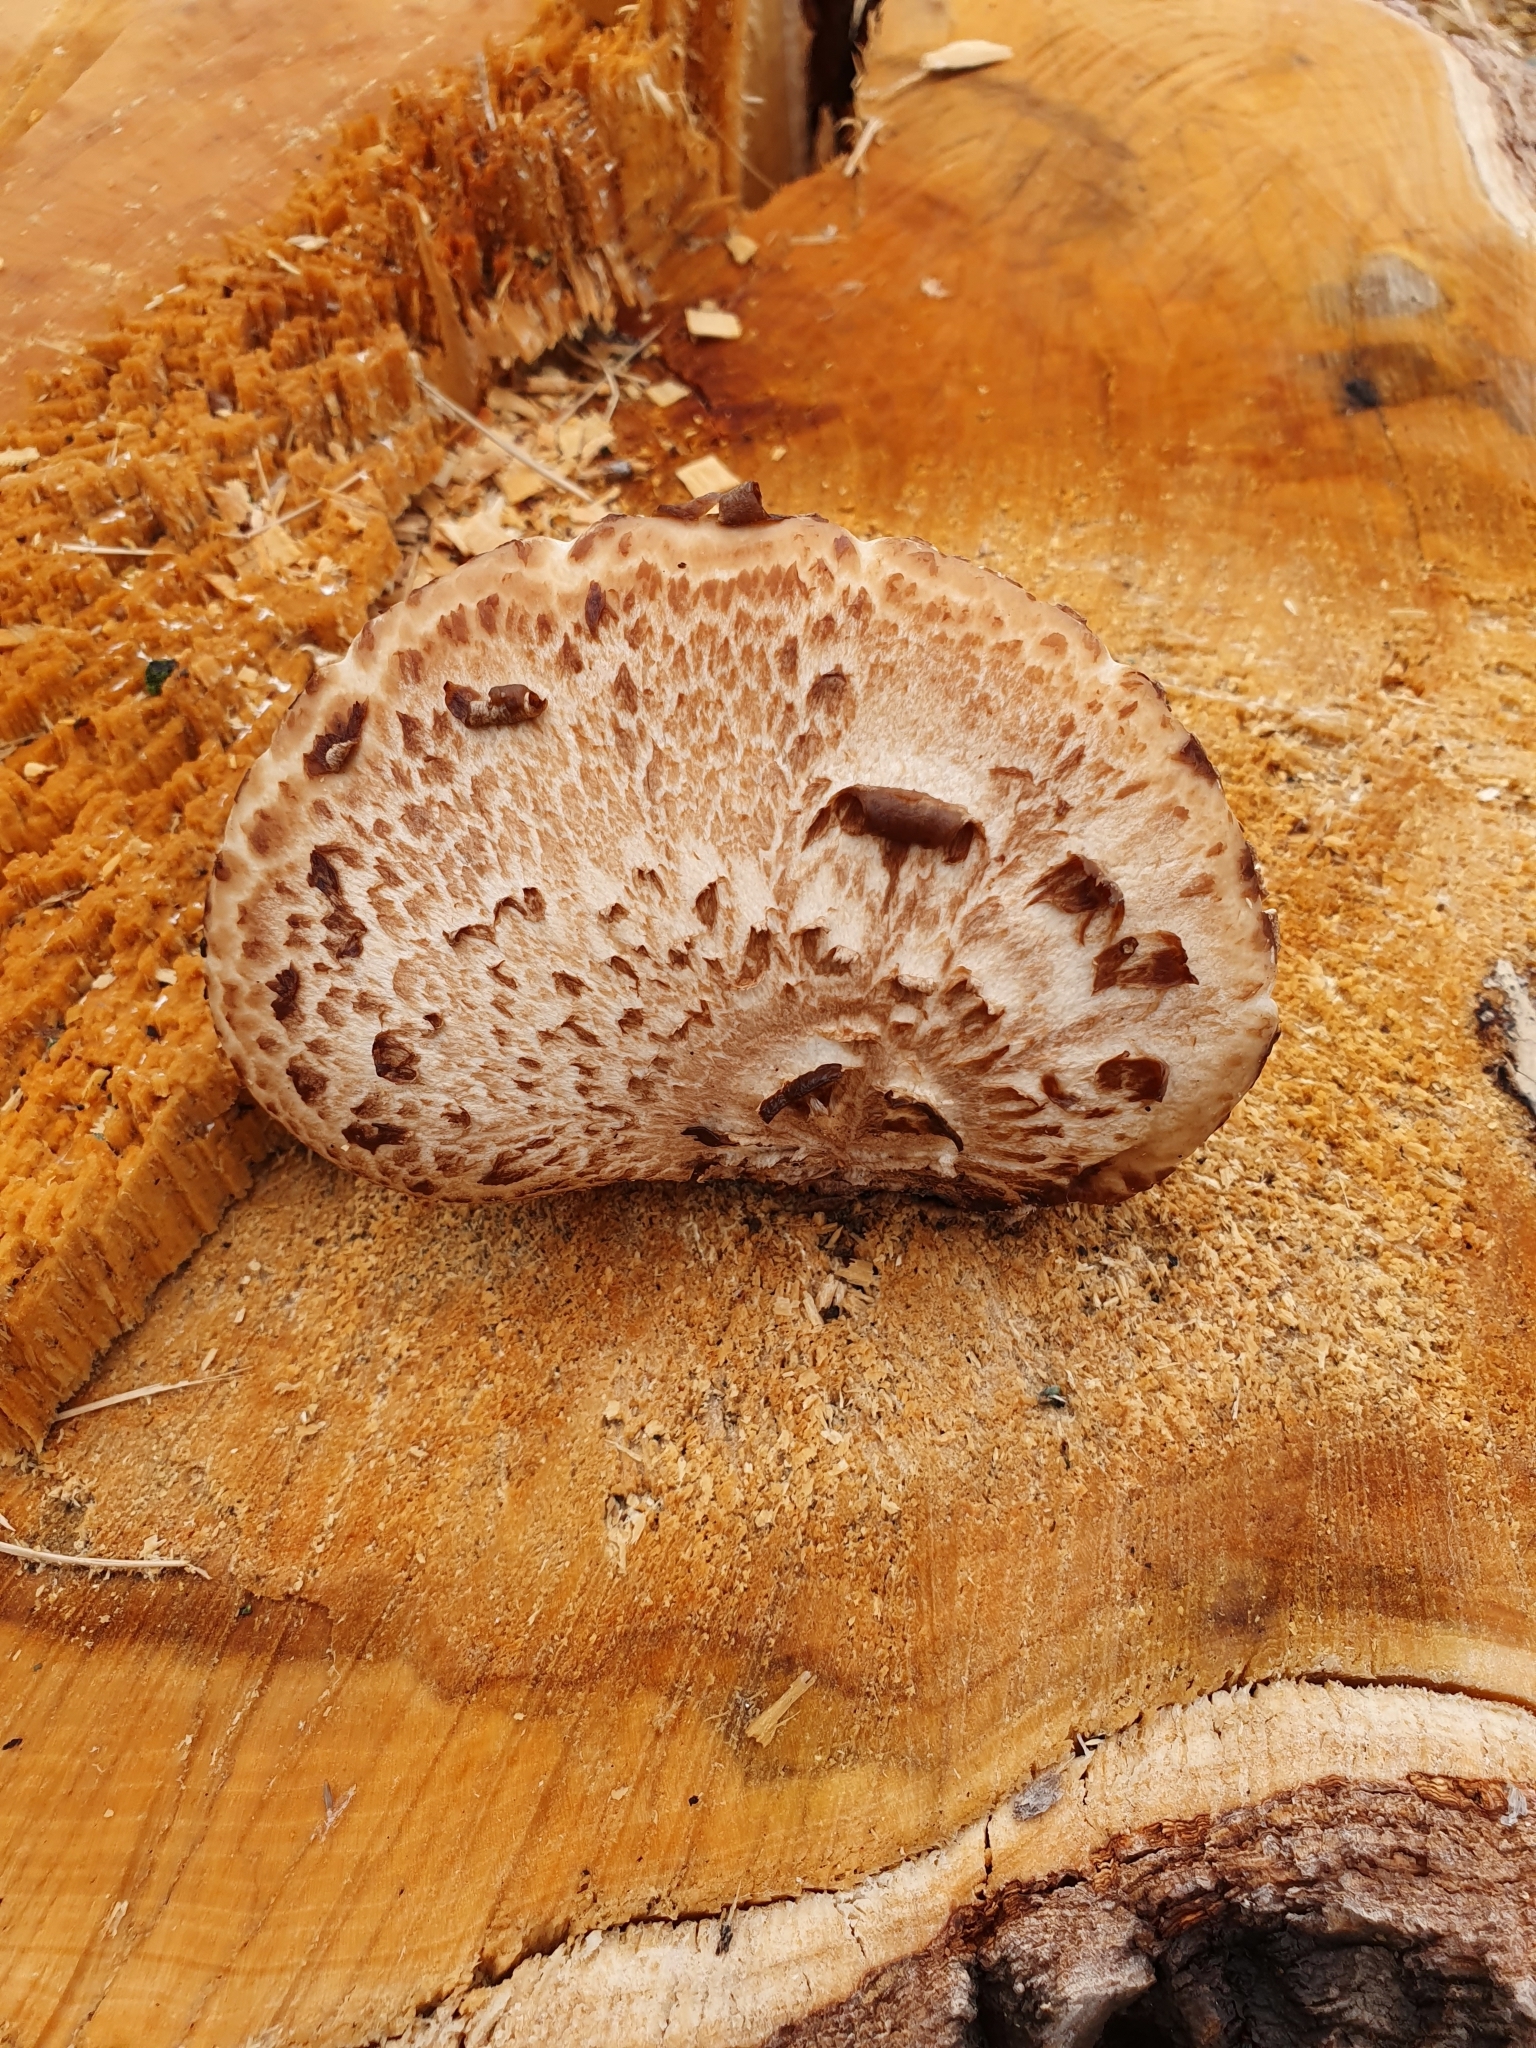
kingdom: Fungi
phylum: Basidiomycota
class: Agaricomycetes
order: Polyporales
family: Polyporaceae
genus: Cerioporus
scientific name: Cerioporus squamosus
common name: Dryad's saddle
